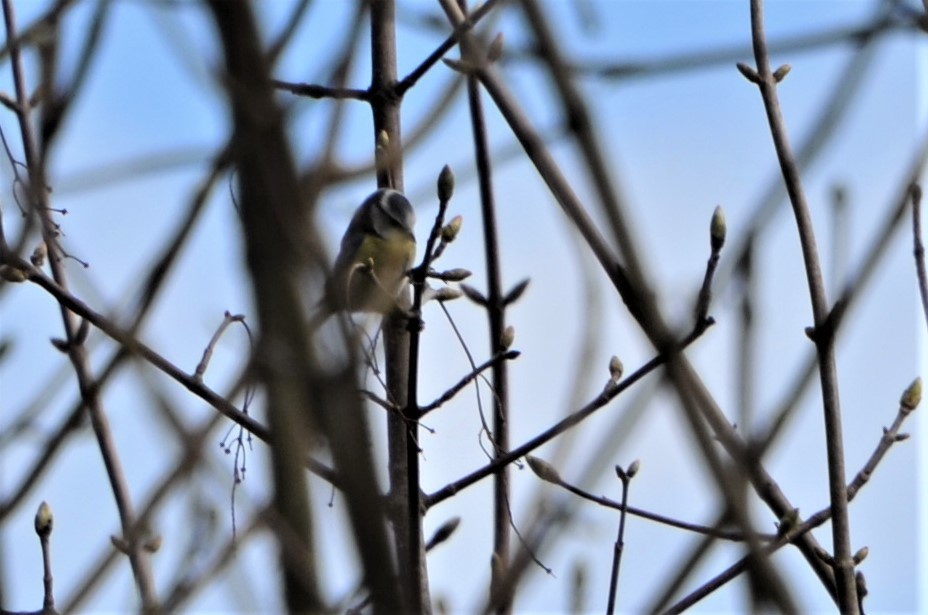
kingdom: Animalia
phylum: Chordata
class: Aves
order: Passeriformes
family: Paridae
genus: Cyanistes
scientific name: Cyanistes caeruleus
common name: Eurasian blue tit
